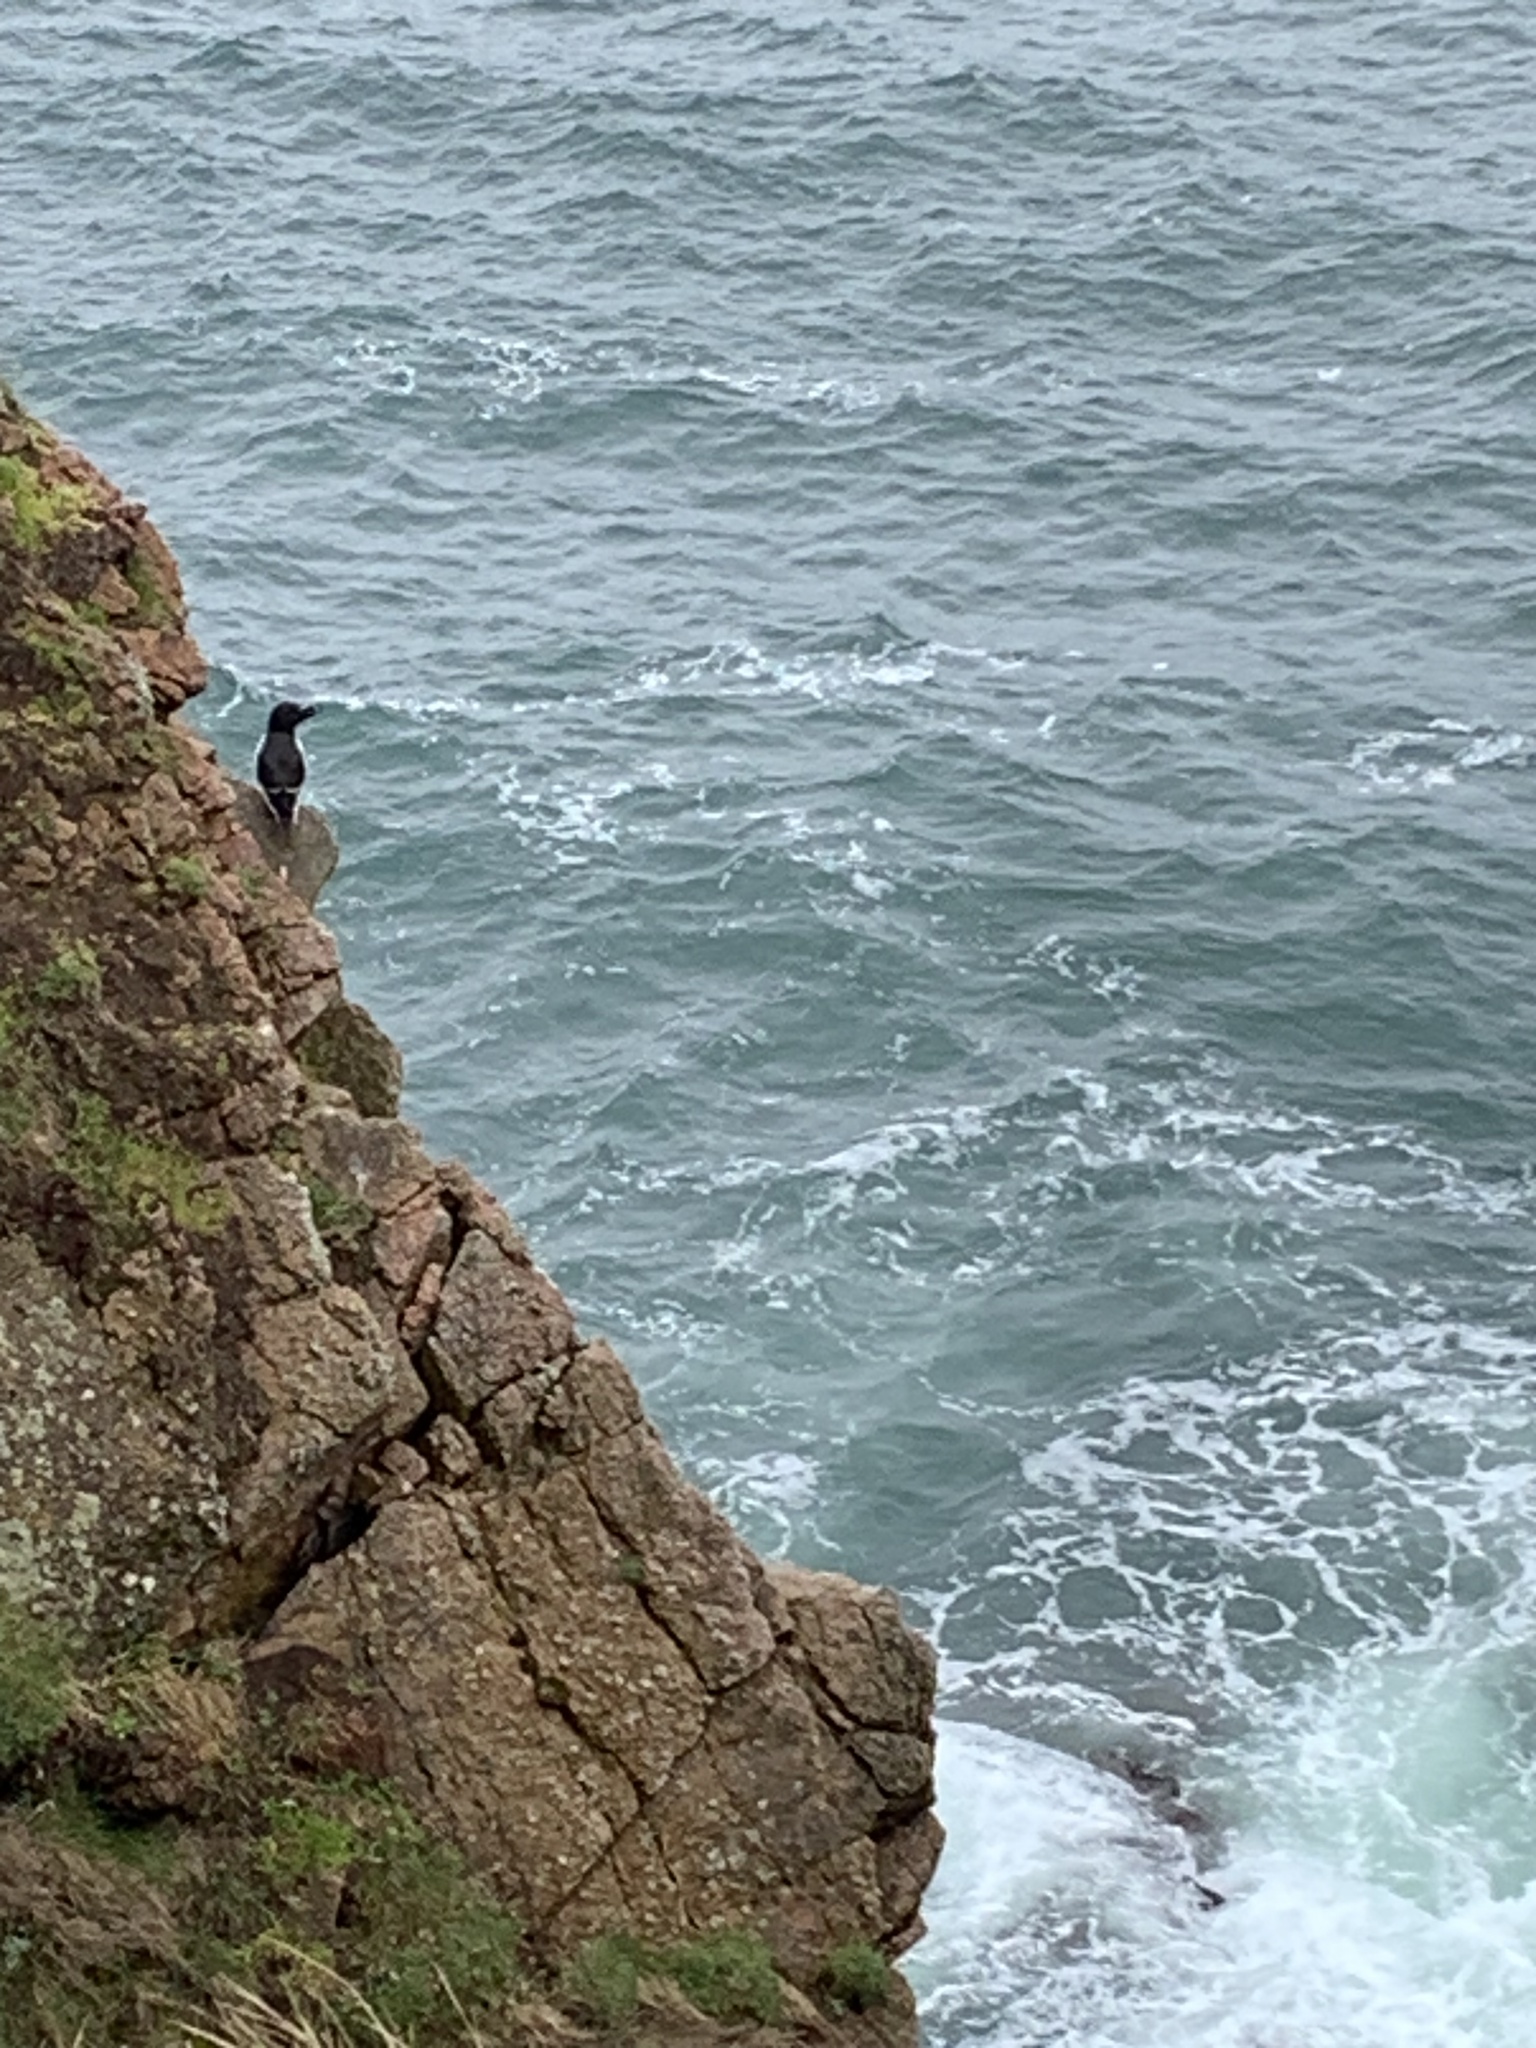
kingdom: Animalia
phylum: Chordata
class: Aves
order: Charadriiformes
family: Alcidae
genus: Alca
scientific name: Alca torda
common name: Razorbill
